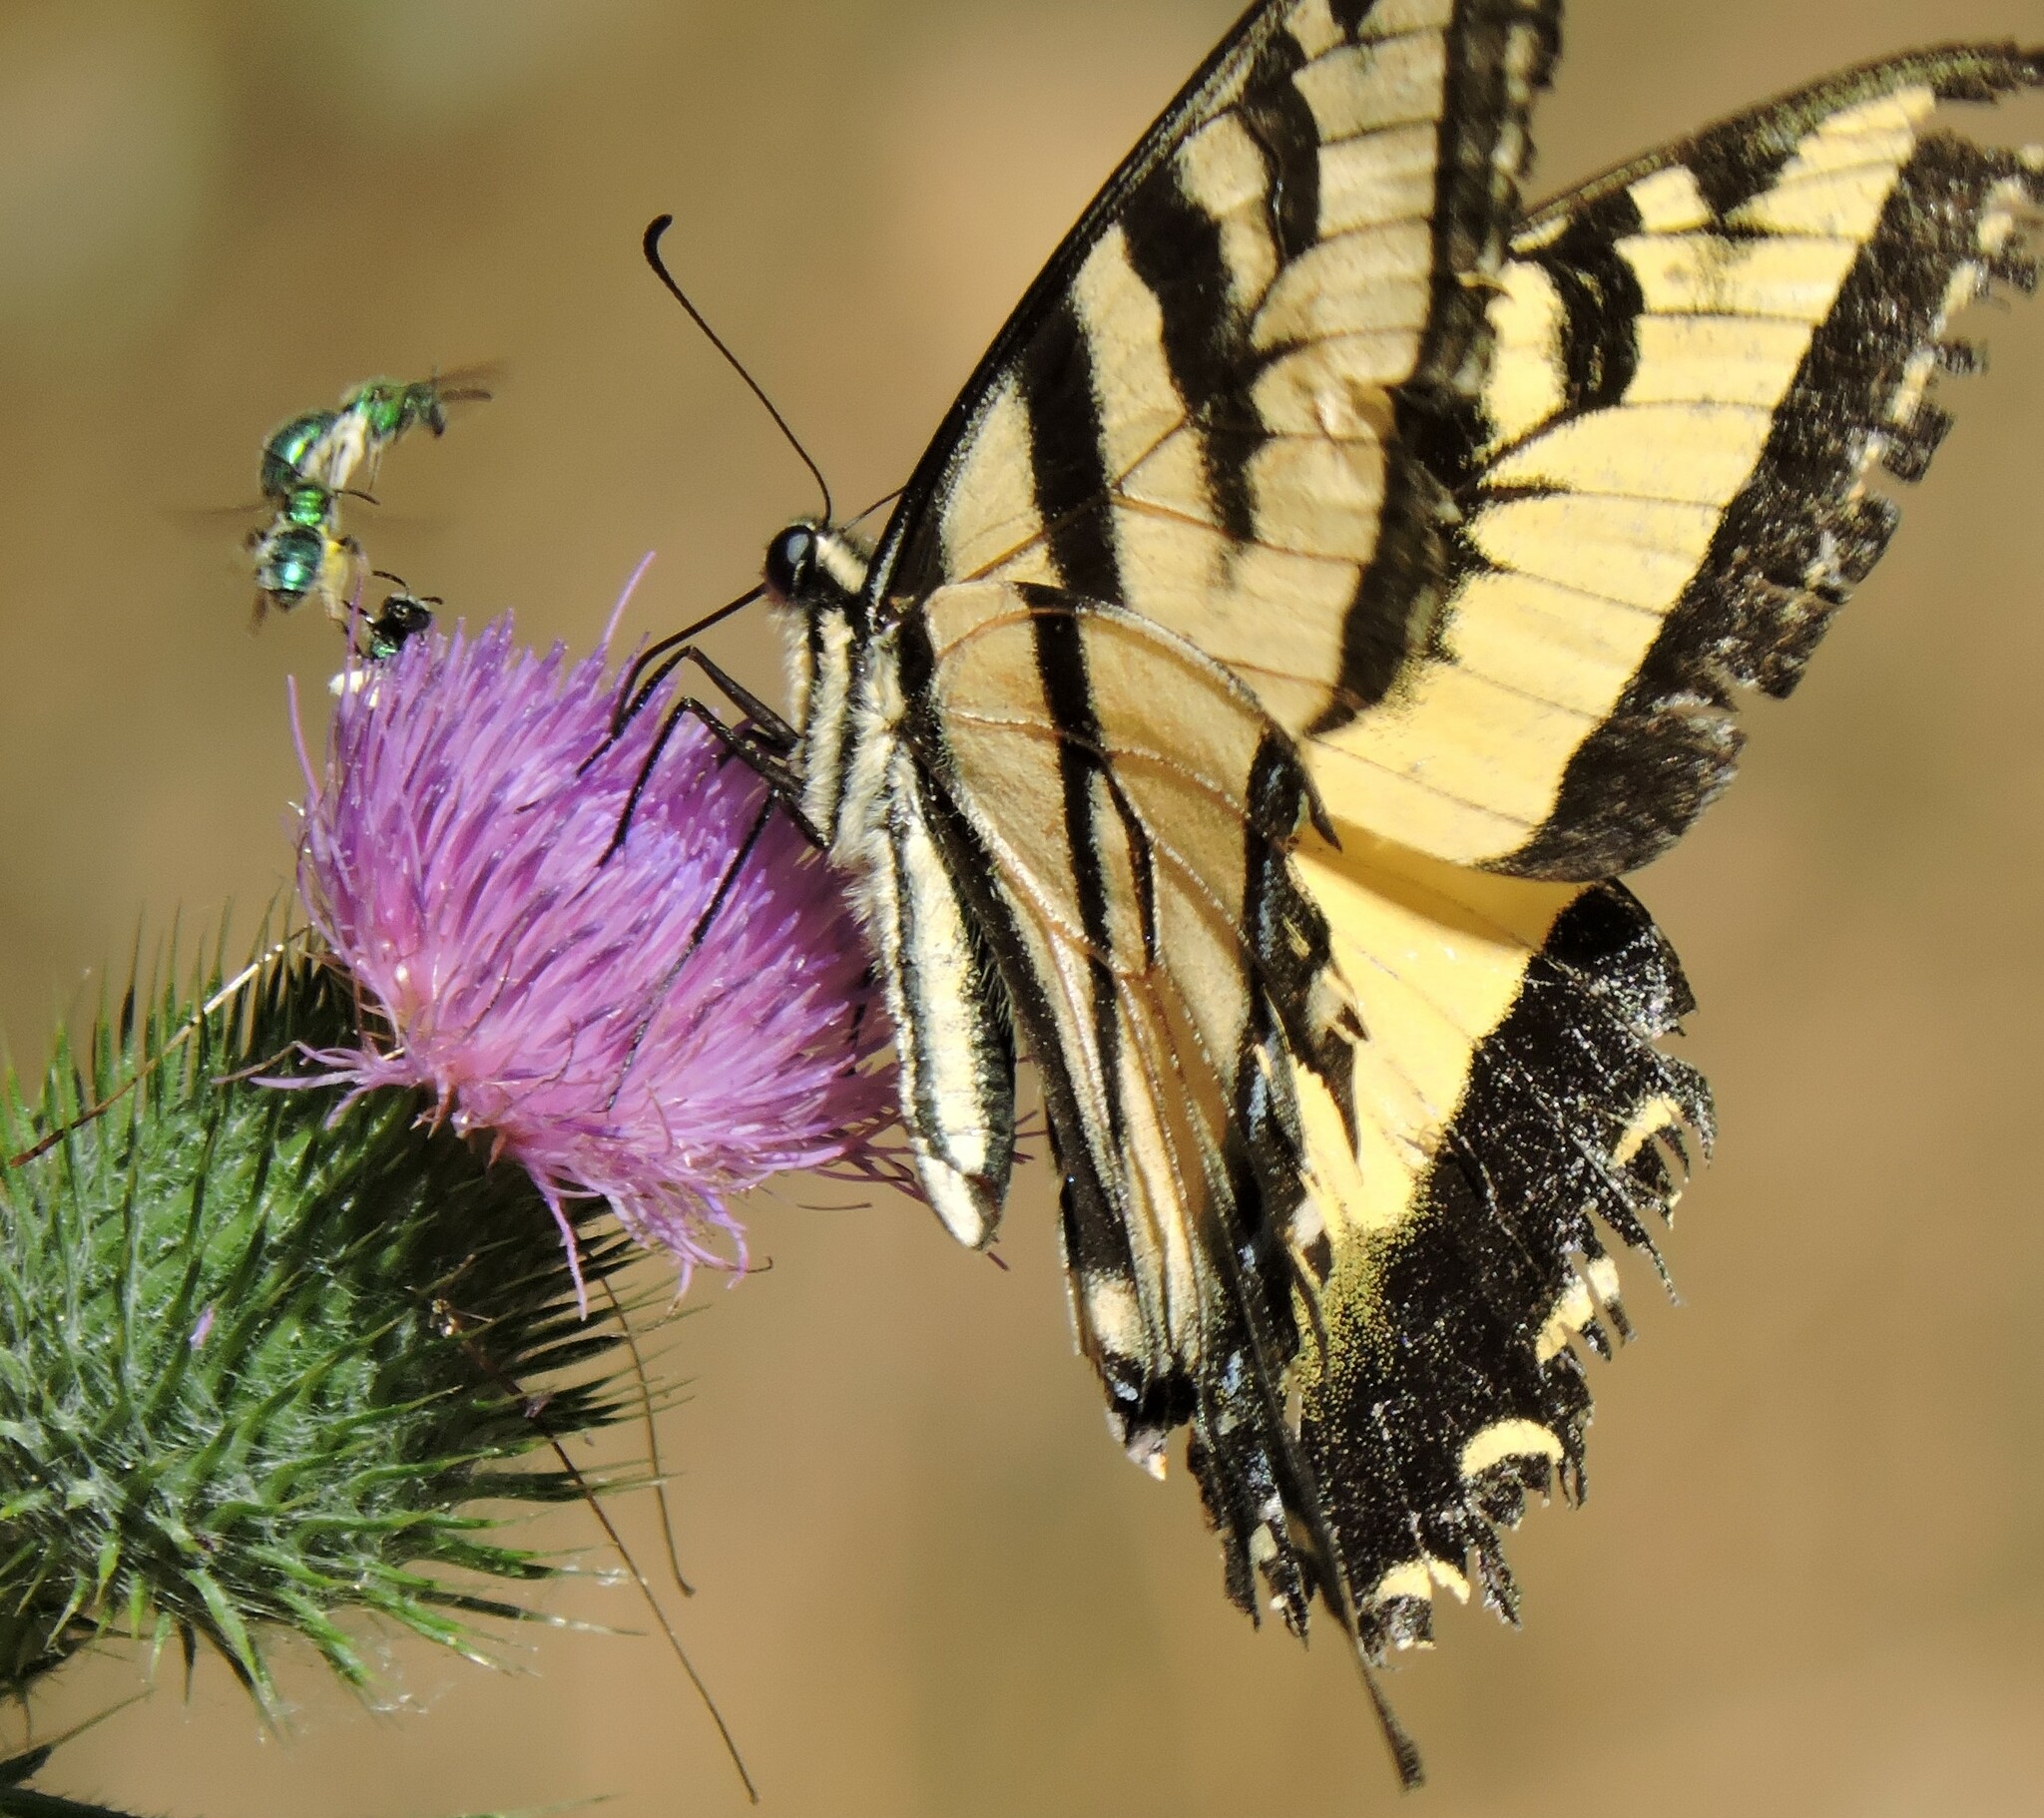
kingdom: Animalia
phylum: Arthropoda
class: Insecta
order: Lepidoptera
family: Papilionidae
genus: Papilio
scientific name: Papilio rutulus
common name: Western tiger swallowtail
